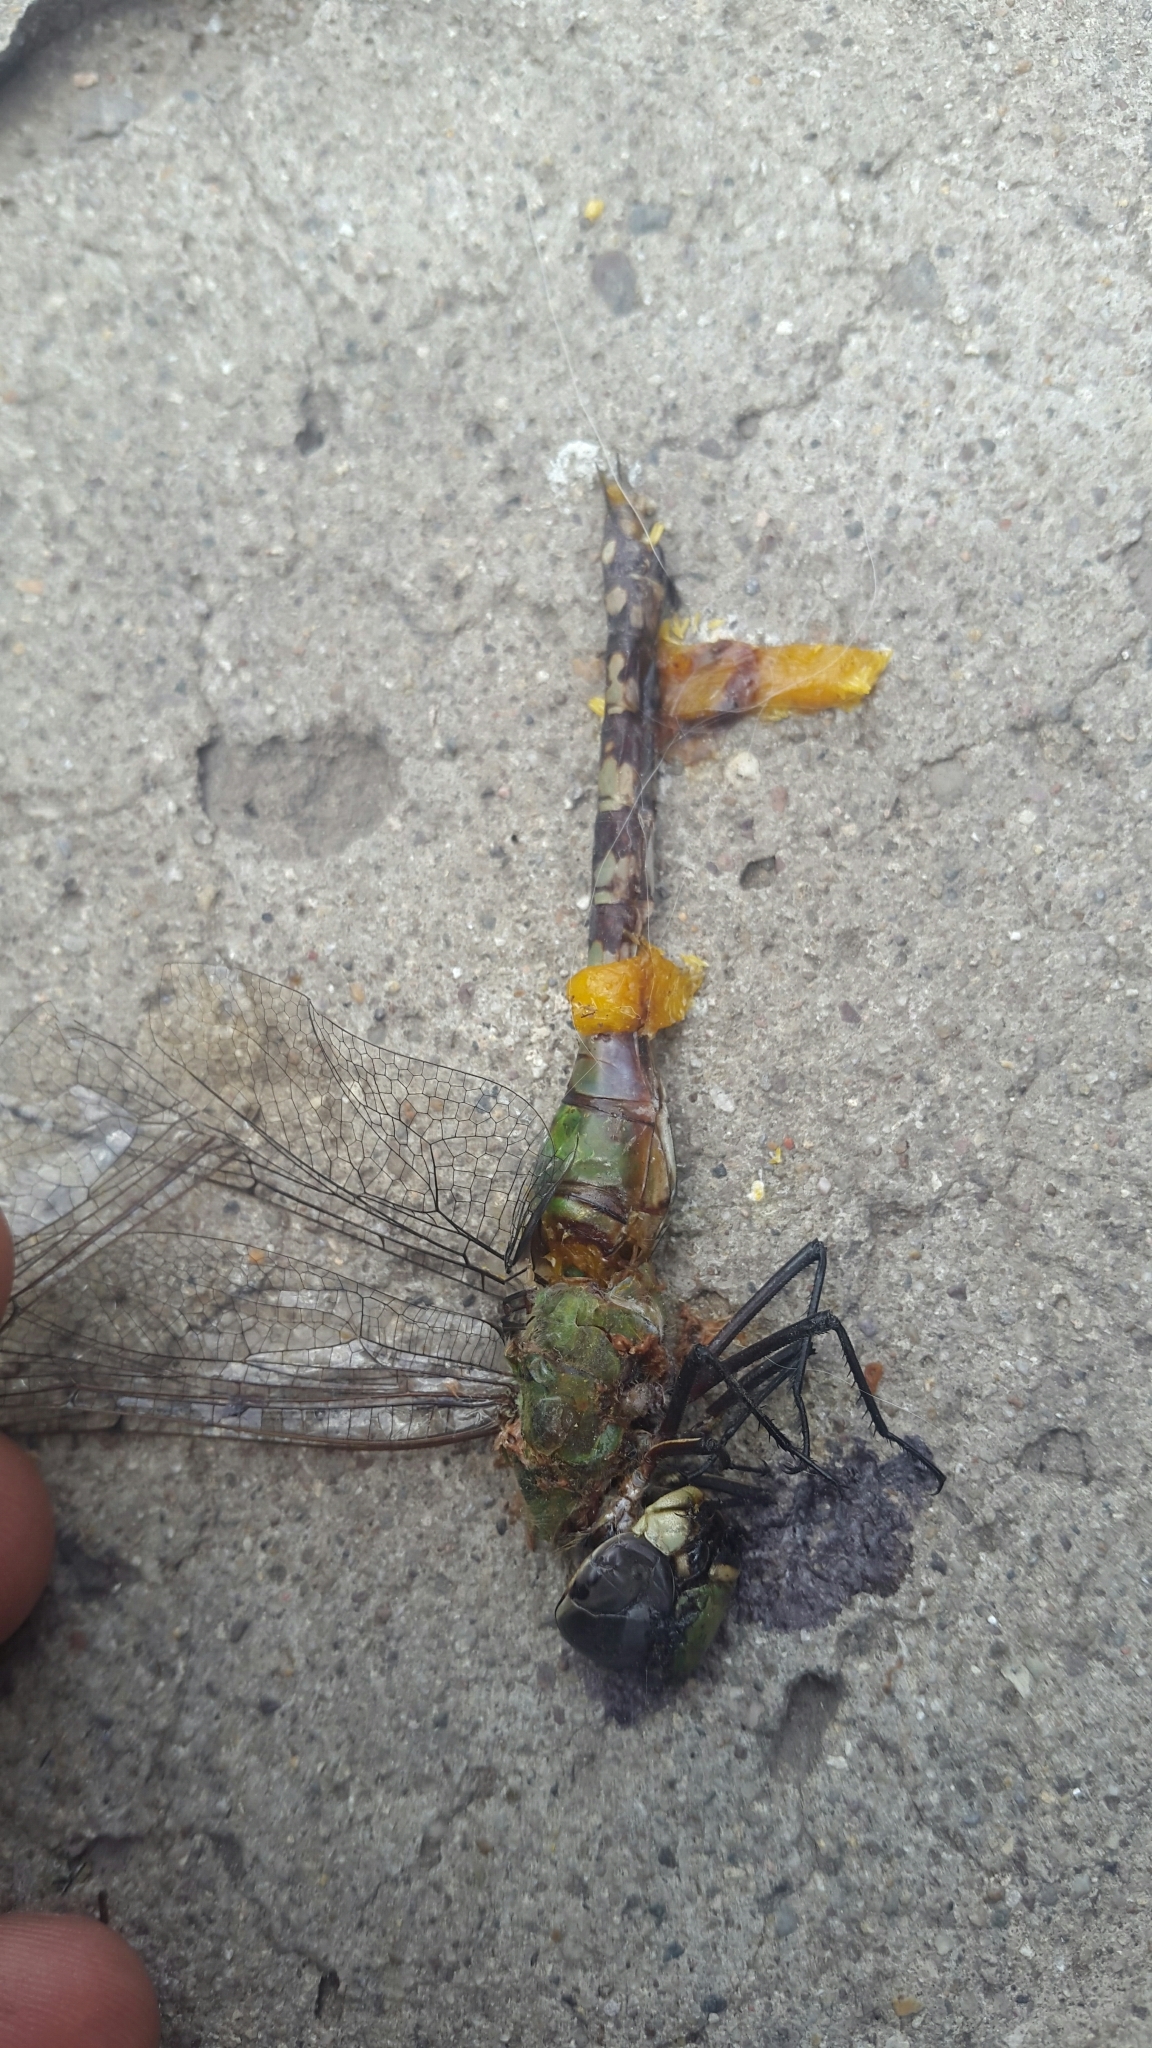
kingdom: Animalia
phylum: Arthropoda
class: Insecta
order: Odonata
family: Aeshnidae
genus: Anax
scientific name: Anax amazili
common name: Amazon darner
